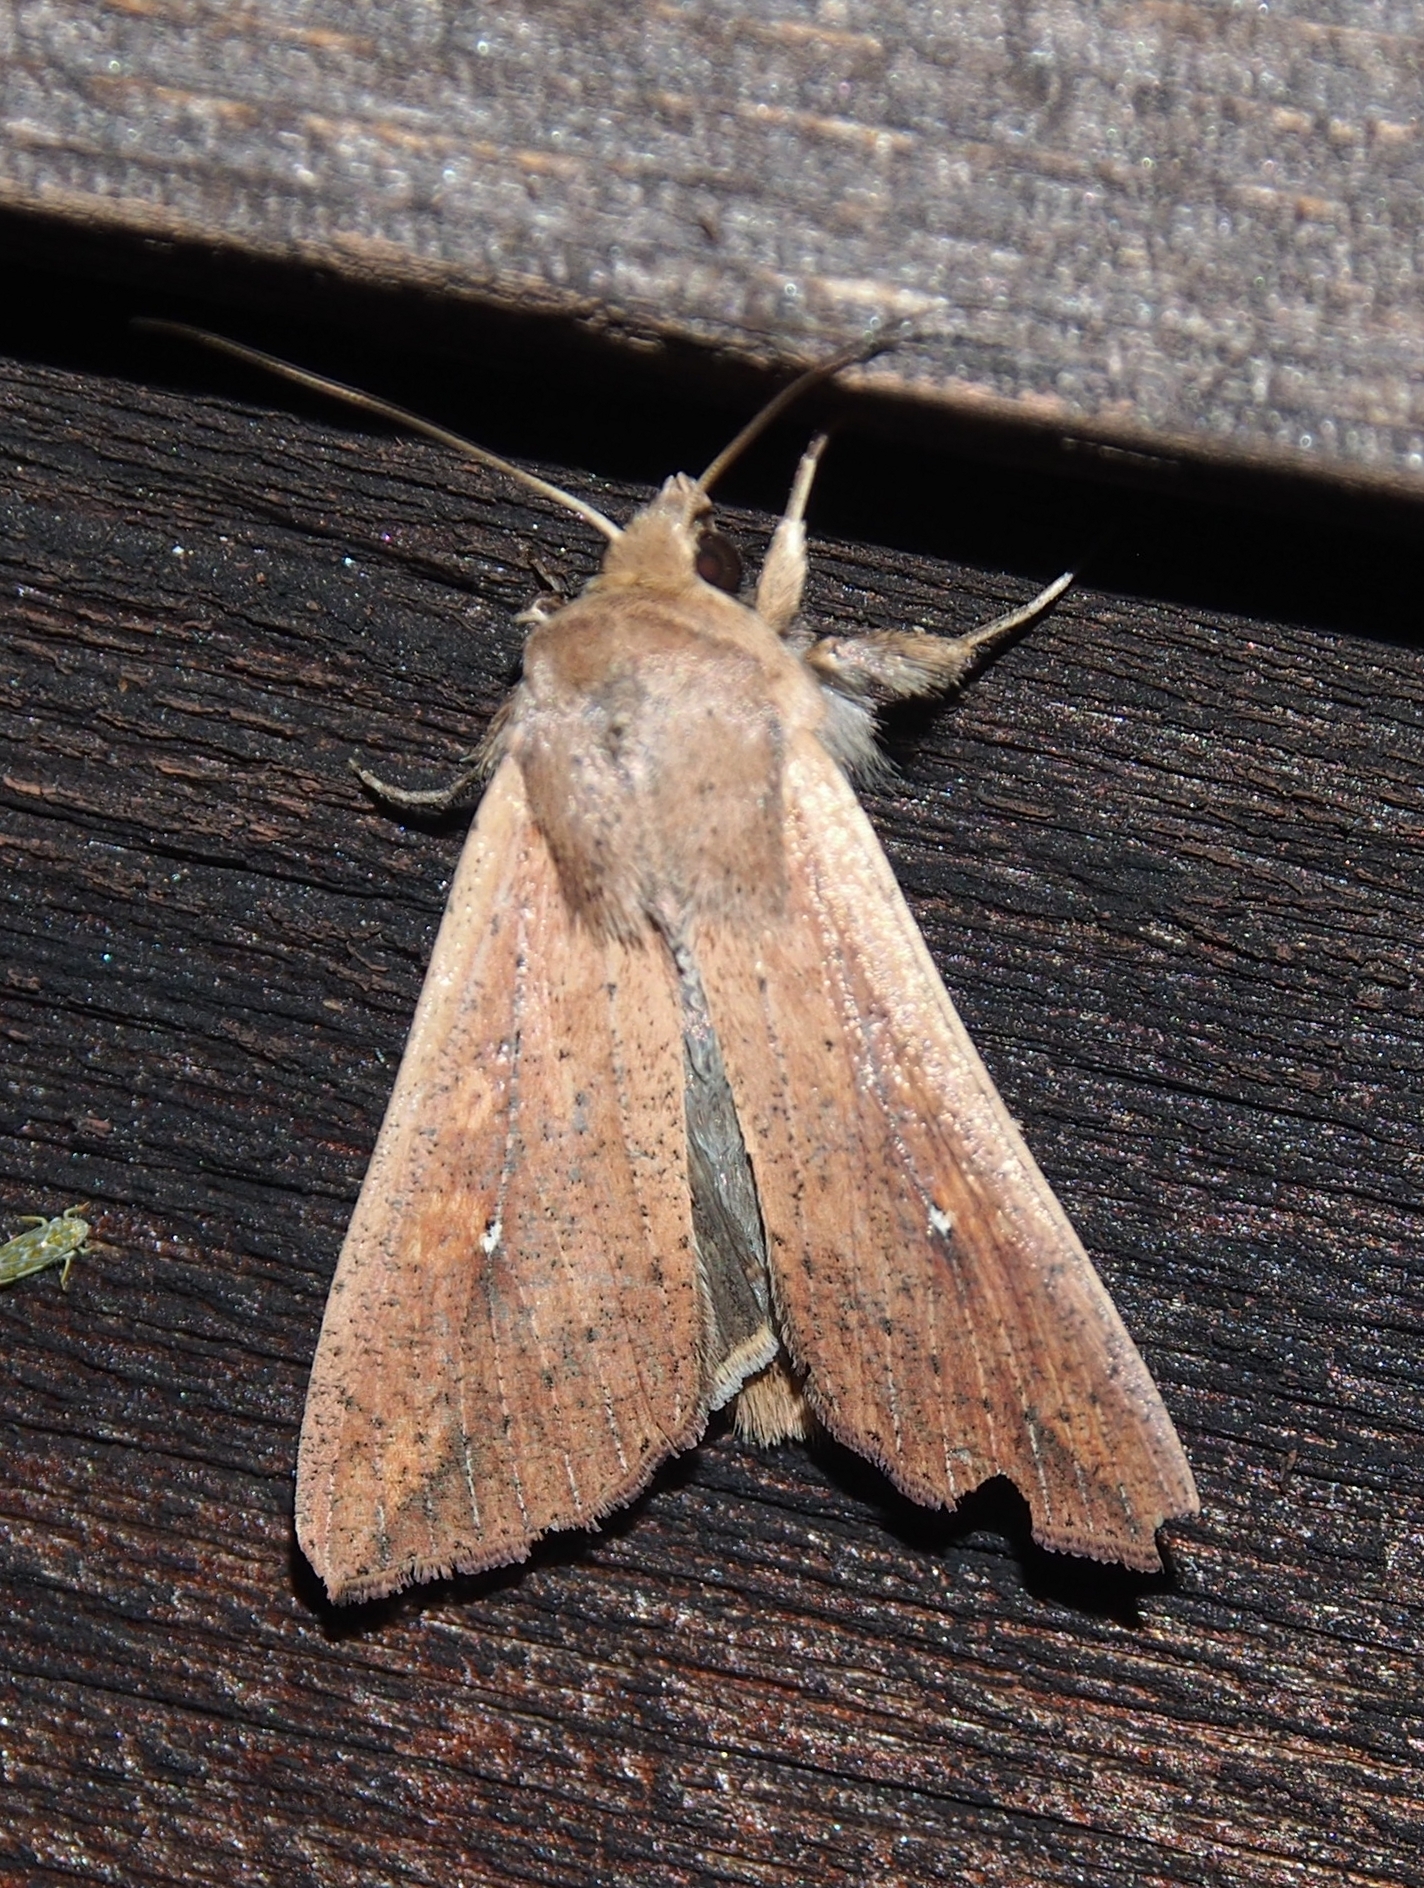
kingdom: Animalia
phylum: Arthropoda
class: Insecta
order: Lepidoptera
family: Noctuidae
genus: Mythimna
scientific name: Mythimna unipuncta
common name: White-speck
